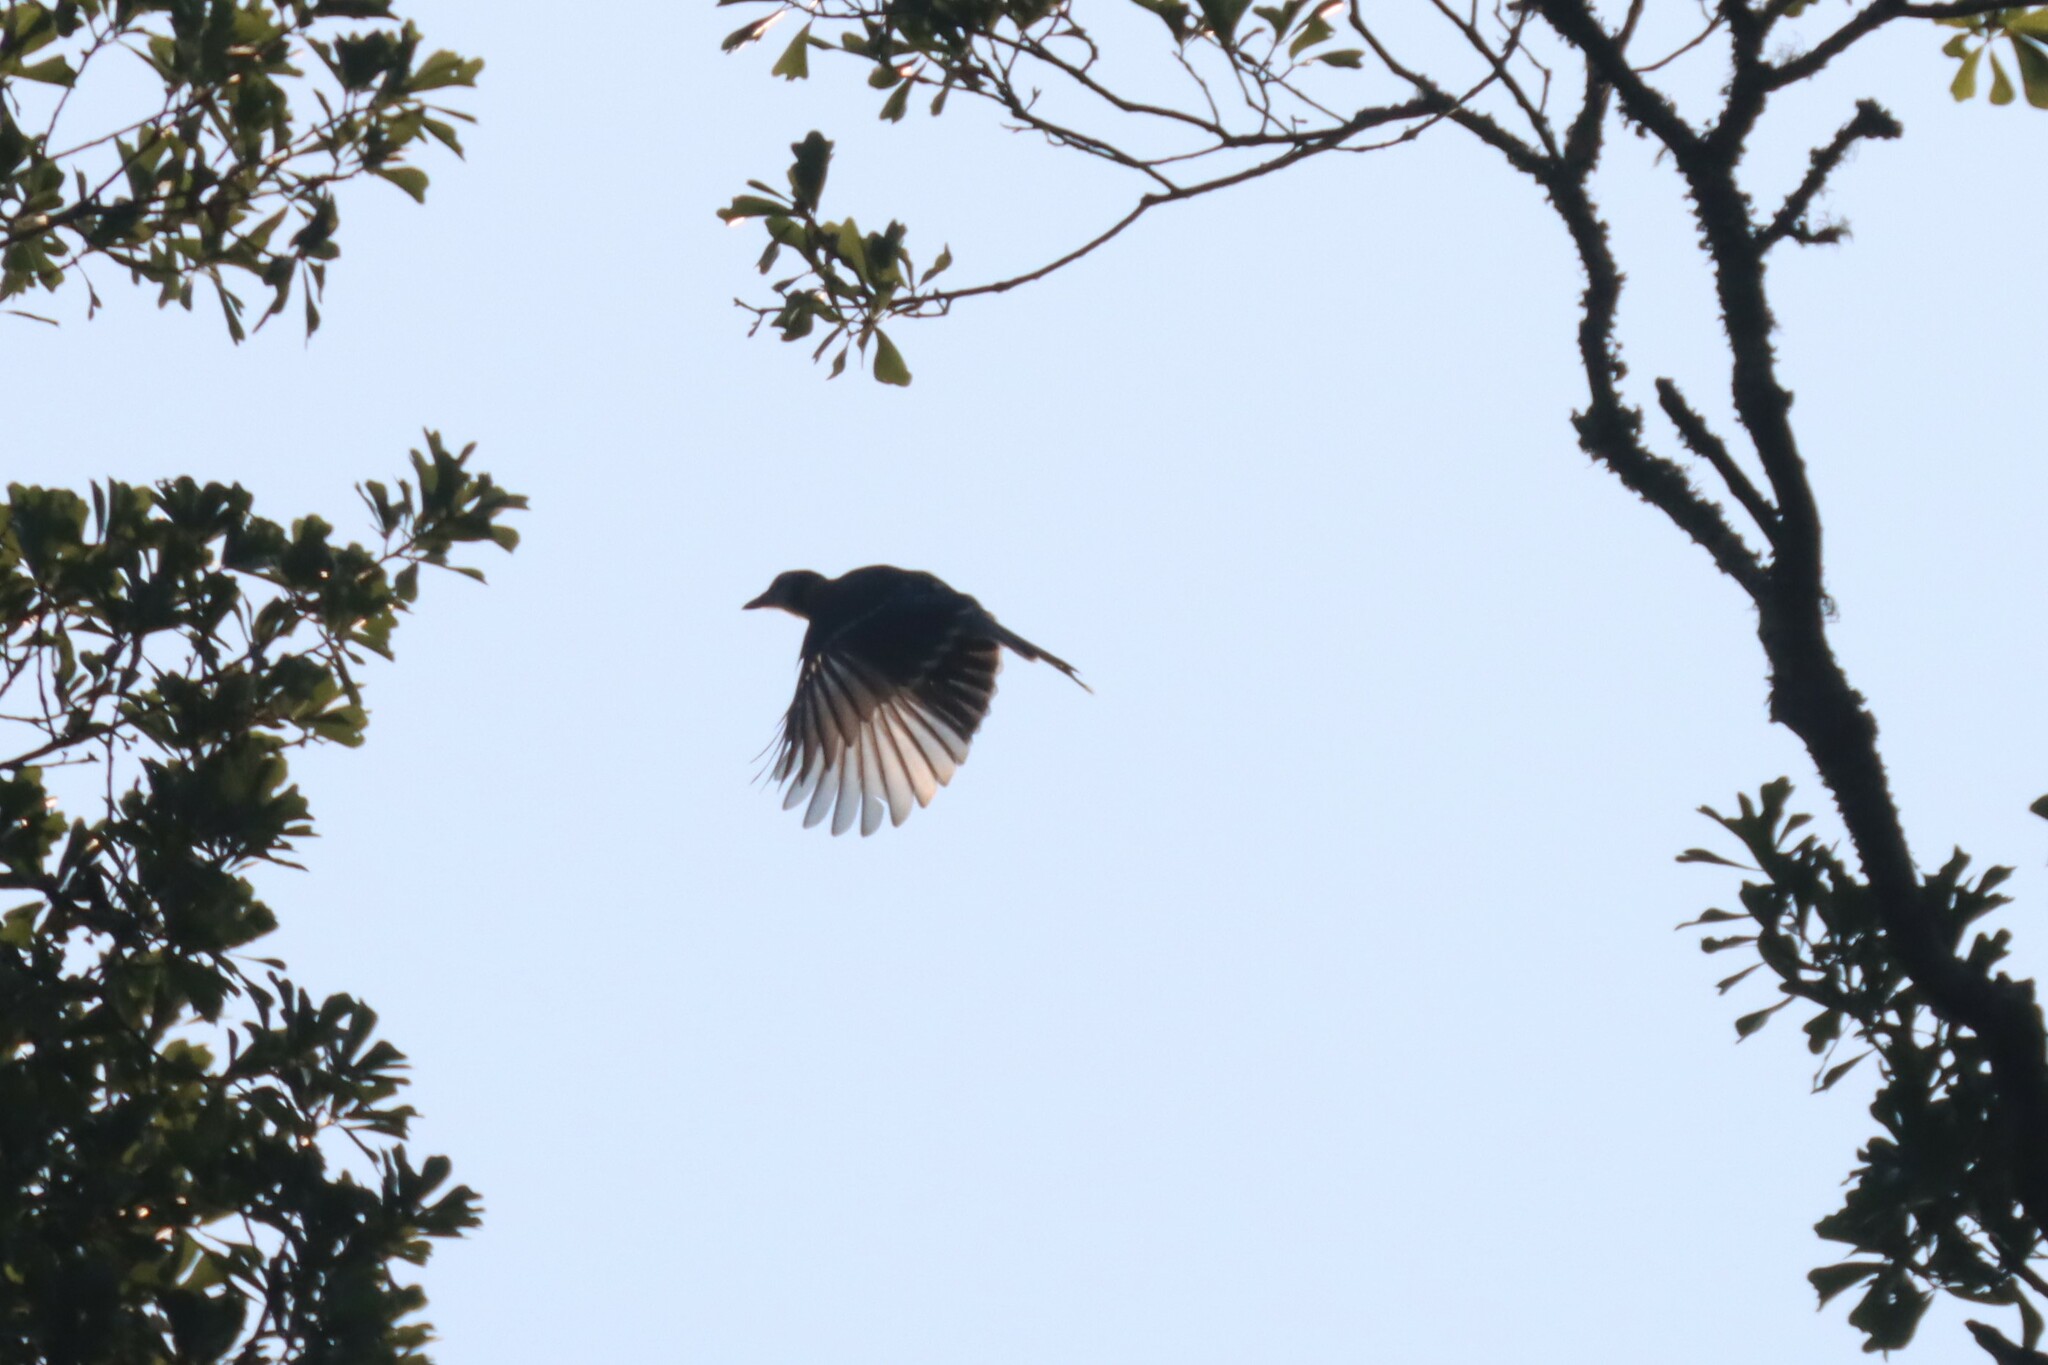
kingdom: Animalia
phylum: Chordata
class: Aves
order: Passeriformes
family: Corvidae
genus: Cyanocitta
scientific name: Cyanocitta cristata
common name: Blue jay
